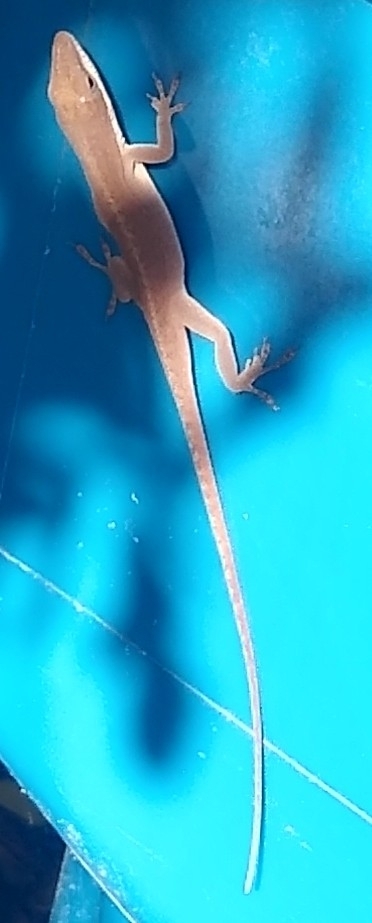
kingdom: Animalia
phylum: Chordata
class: Squamata
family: Dactyloidae
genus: Anolis
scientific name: Anolis carolinensis
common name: Green anole
